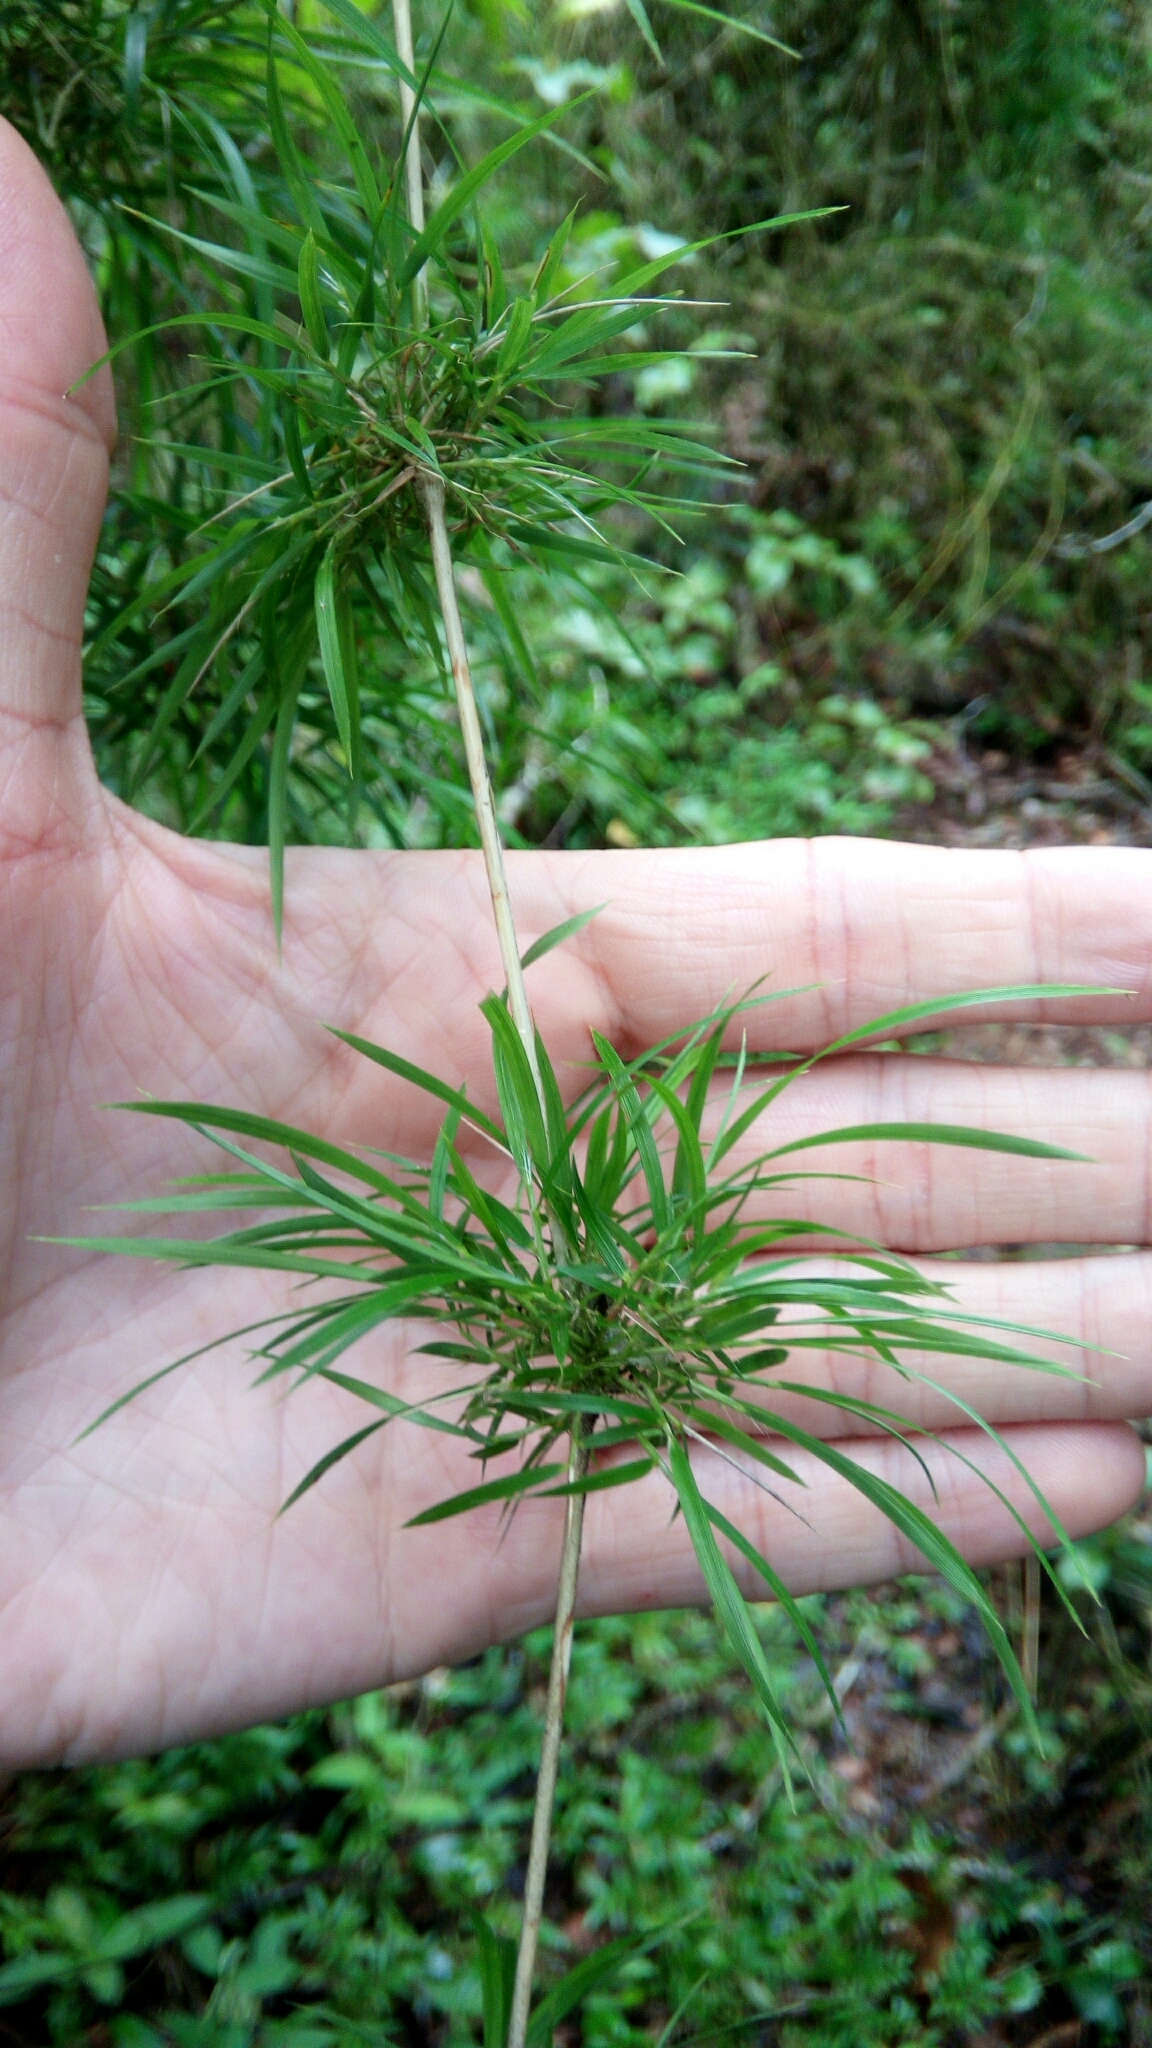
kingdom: Plantae
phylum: Tracheophyta
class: Liliopsida
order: Poales
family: Poaceae
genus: Nastus
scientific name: Nastus elongatus
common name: Spider bamboo
